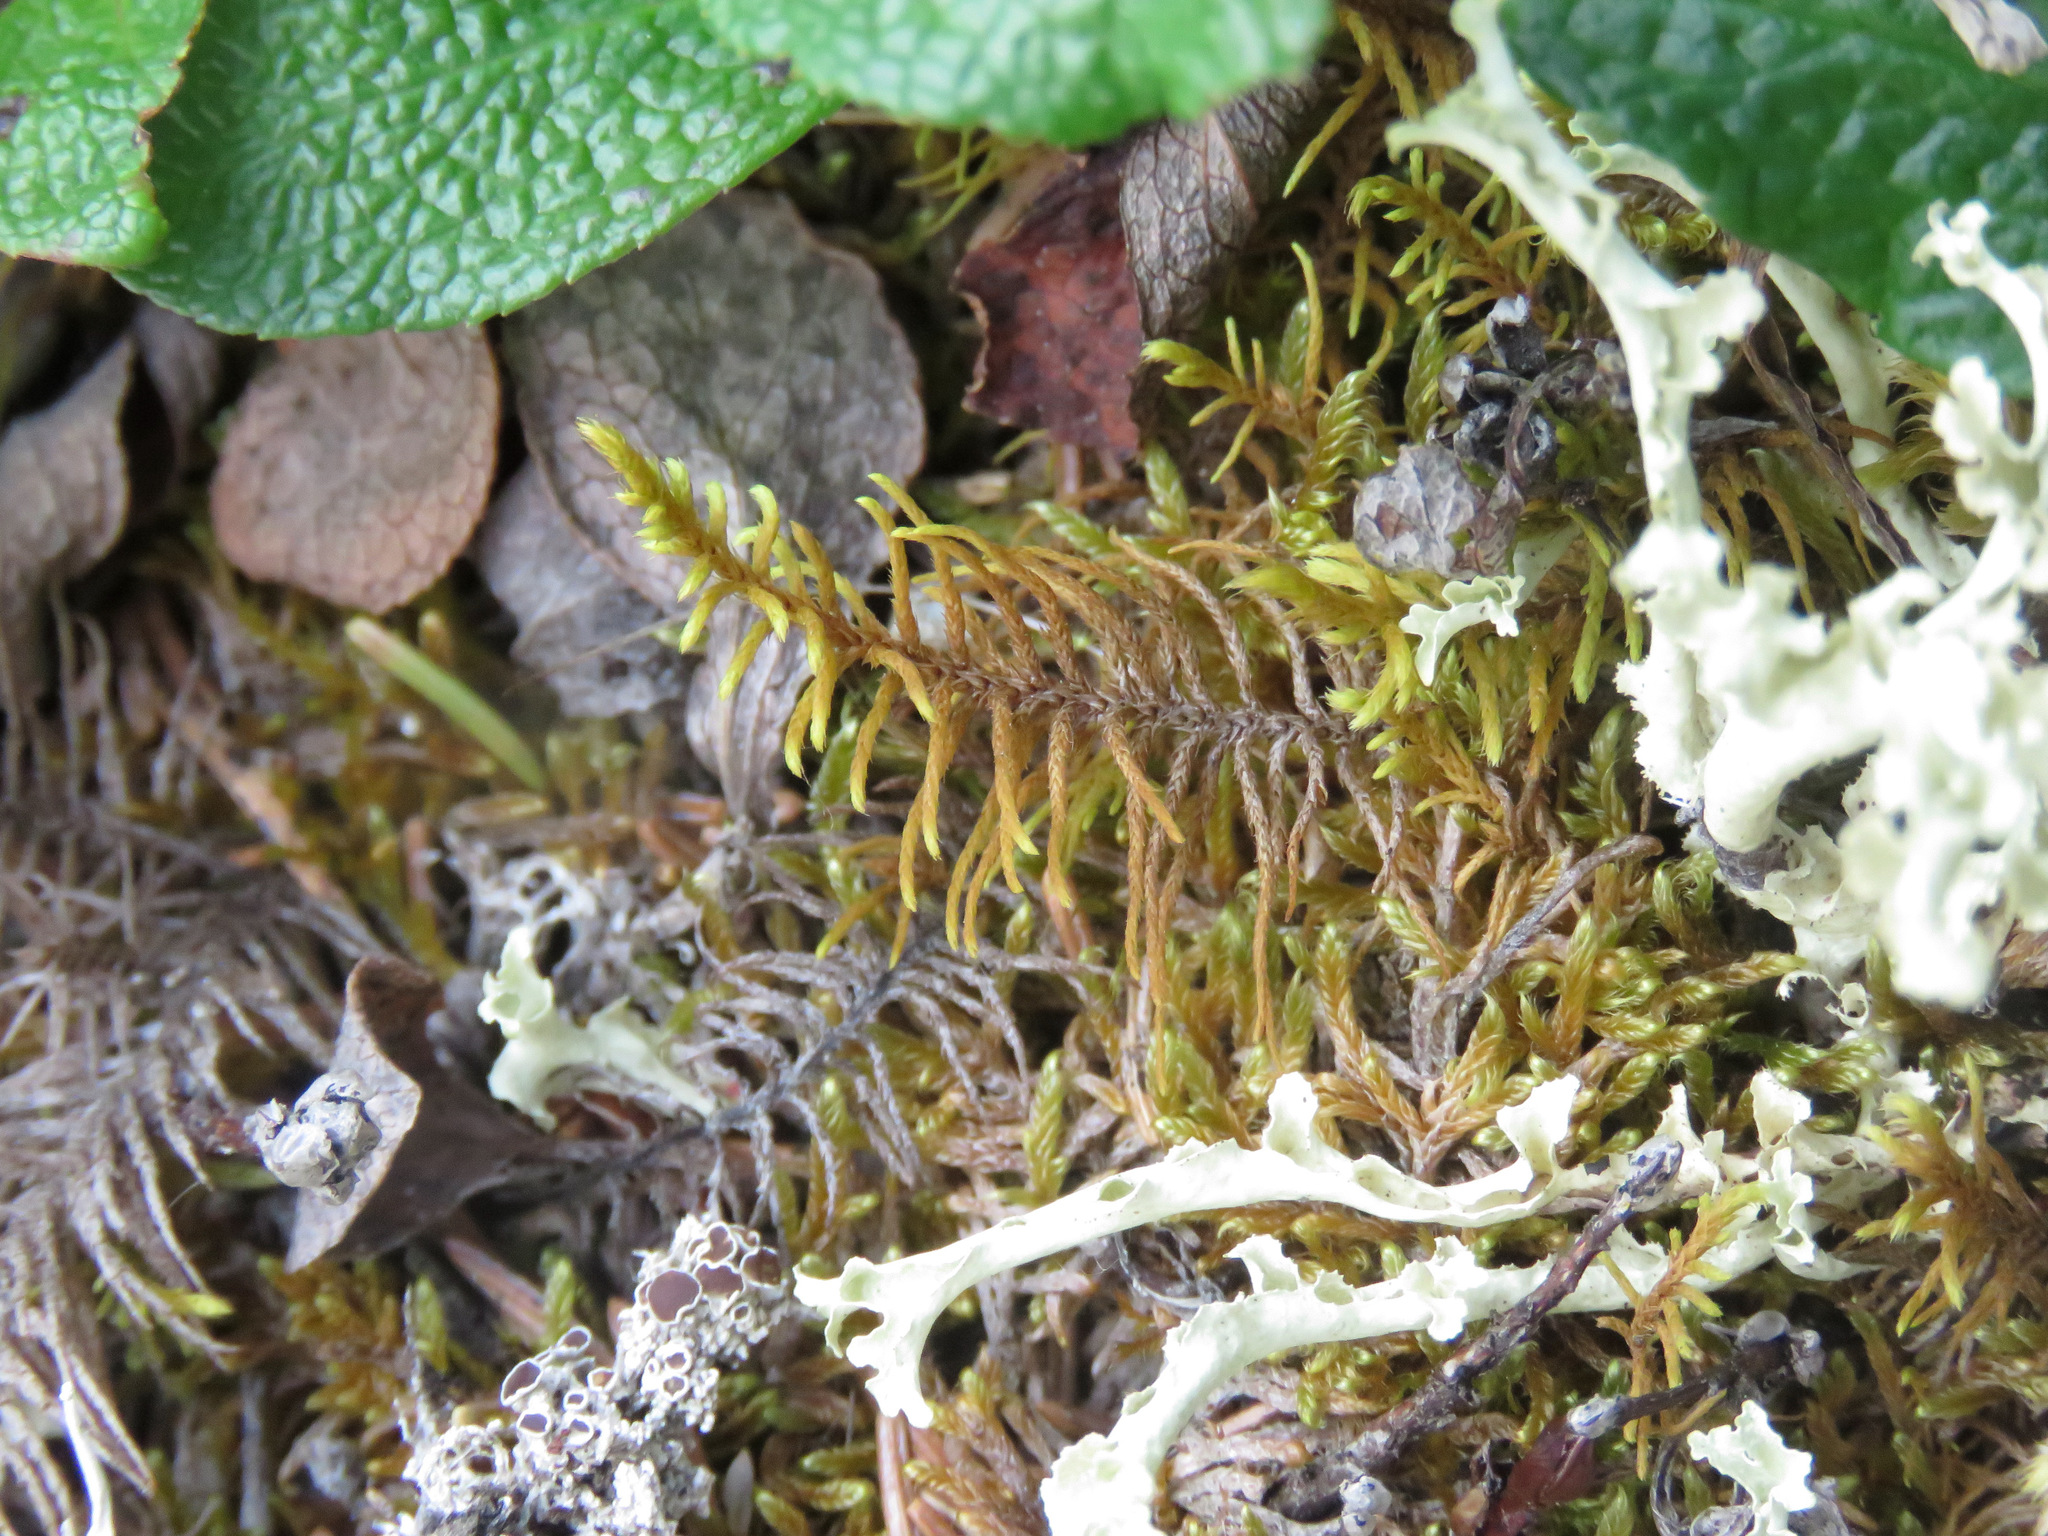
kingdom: Plantae
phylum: Bryophyta
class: Bryopsida
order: Hypnales
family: Thuidiaceae
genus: Abietinella
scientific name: Abietinella abietina
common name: Wiry fern moss
